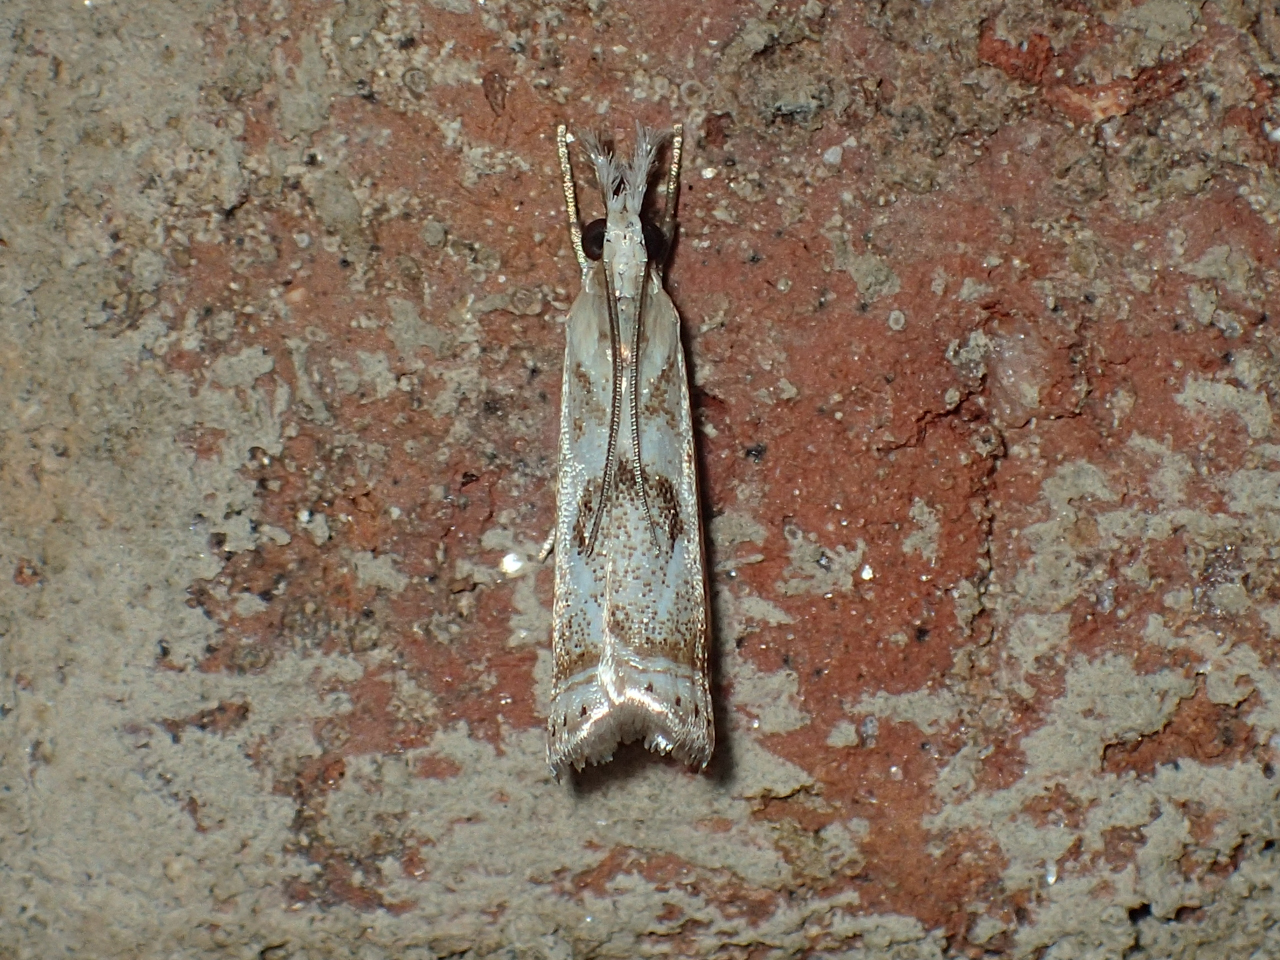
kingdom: Animalia
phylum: Arthropoda
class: Insecta
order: Lepidoptera
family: Crambidae
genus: Microcrambus
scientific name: Microcrambus elegans
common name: Elegant grass-veneer
